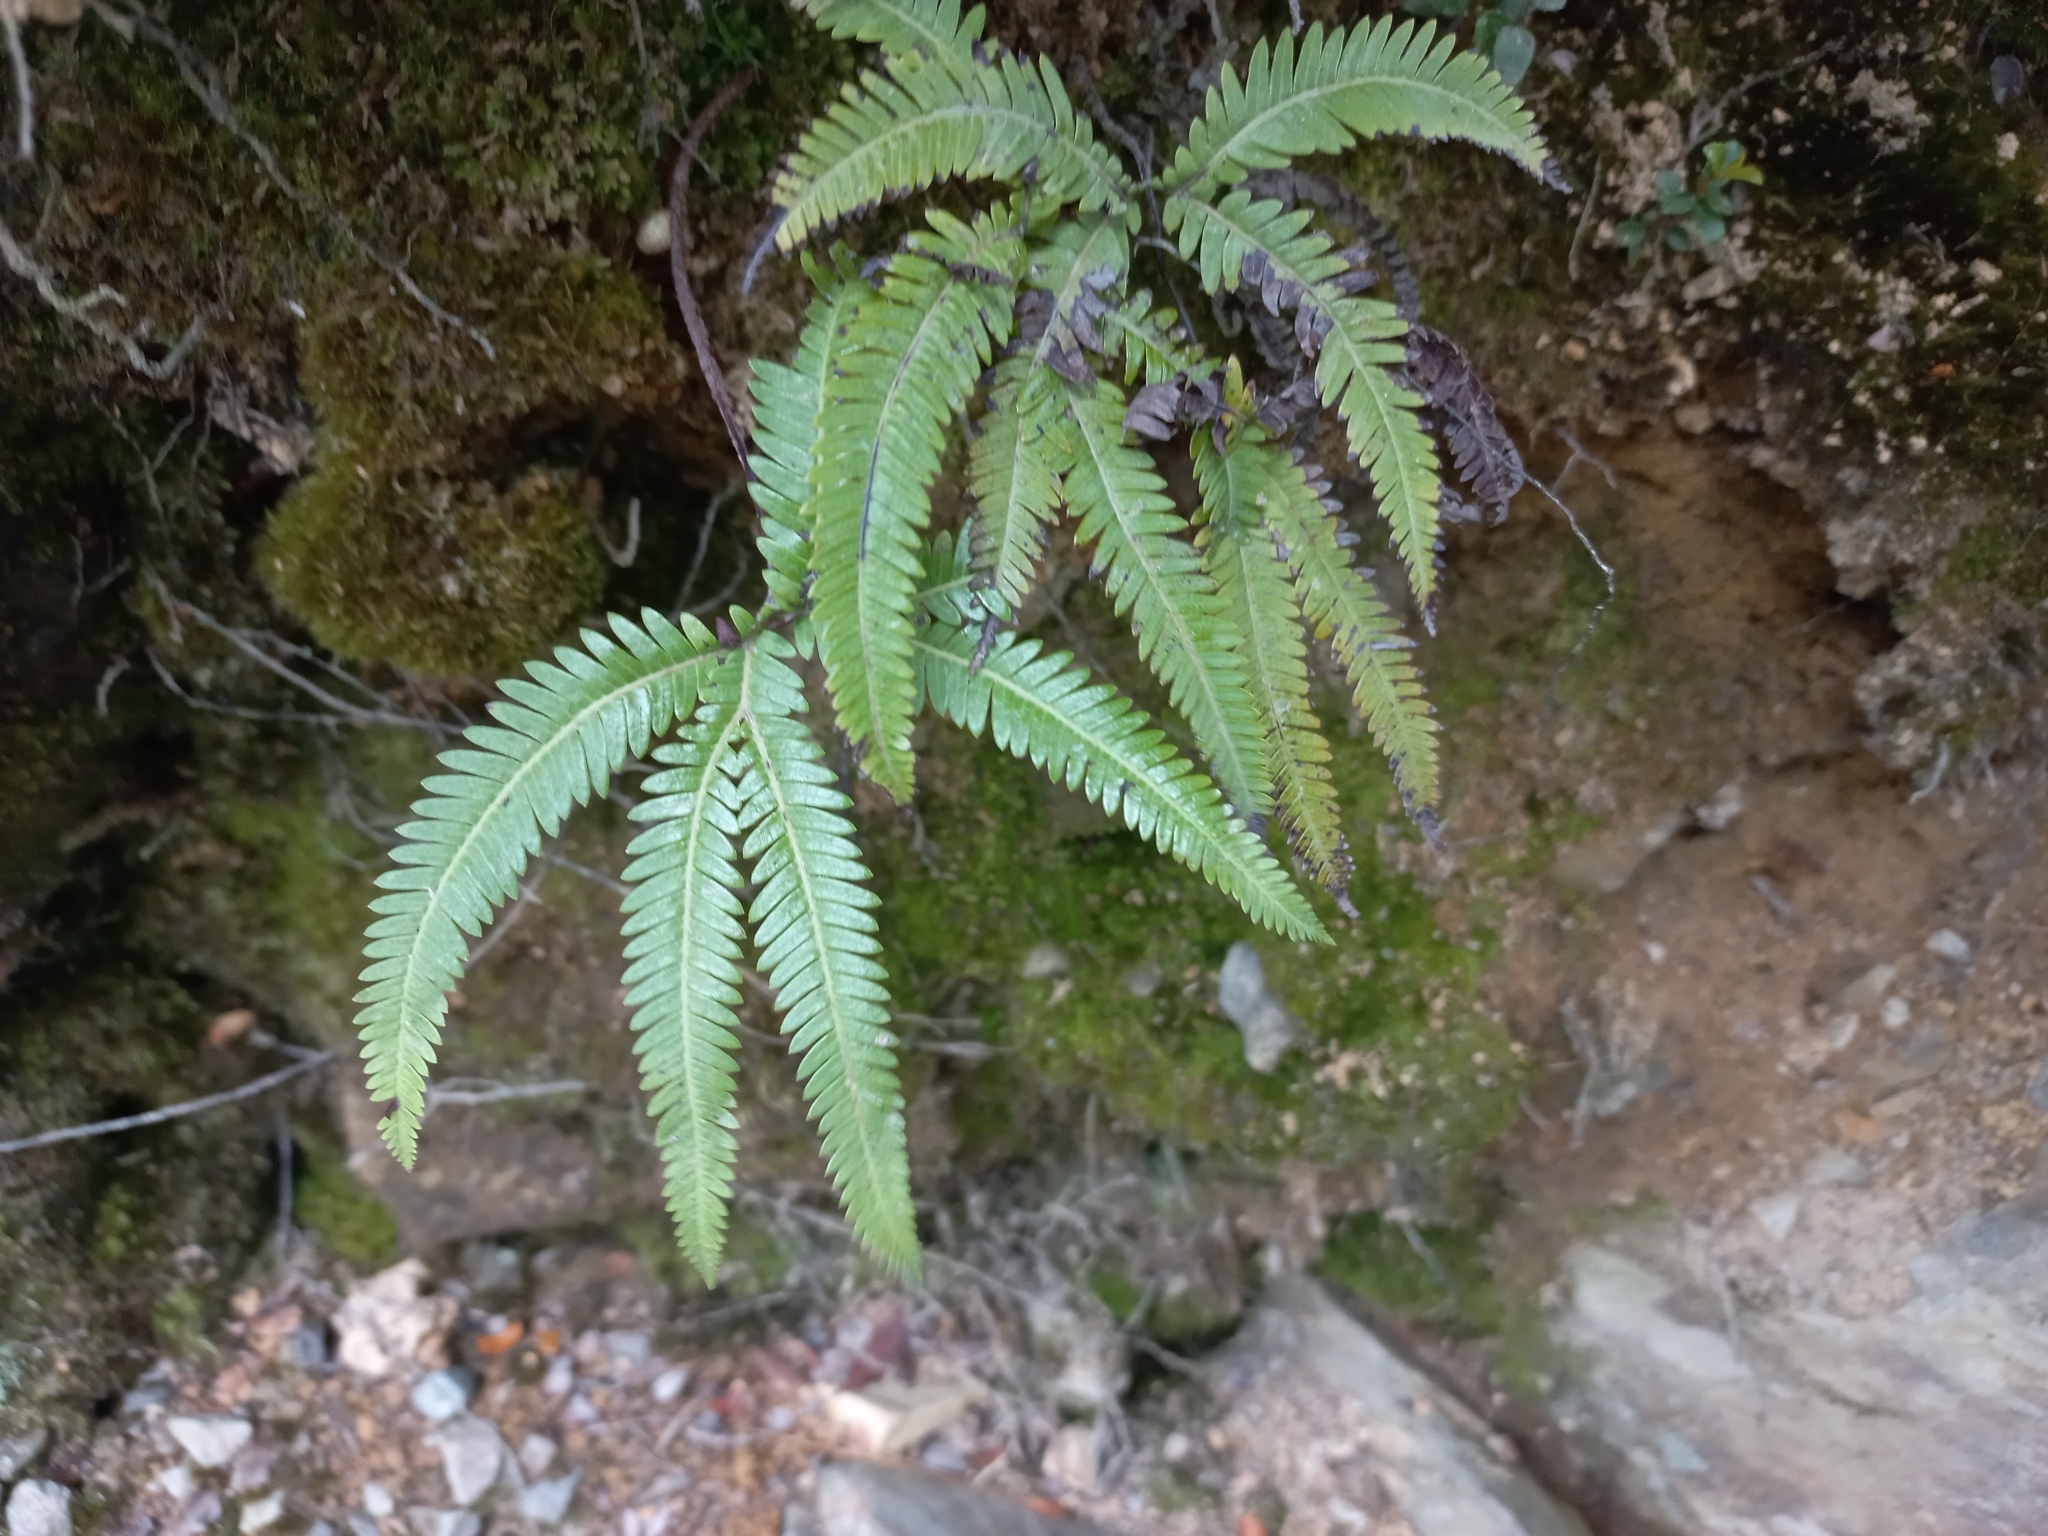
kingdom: Plantae
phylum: Tracheophyta
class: Polypodiopsida
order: Gleicheniales
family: Gleicheniaceae
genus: Sticherus
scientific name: Sticherus cunninghamii
